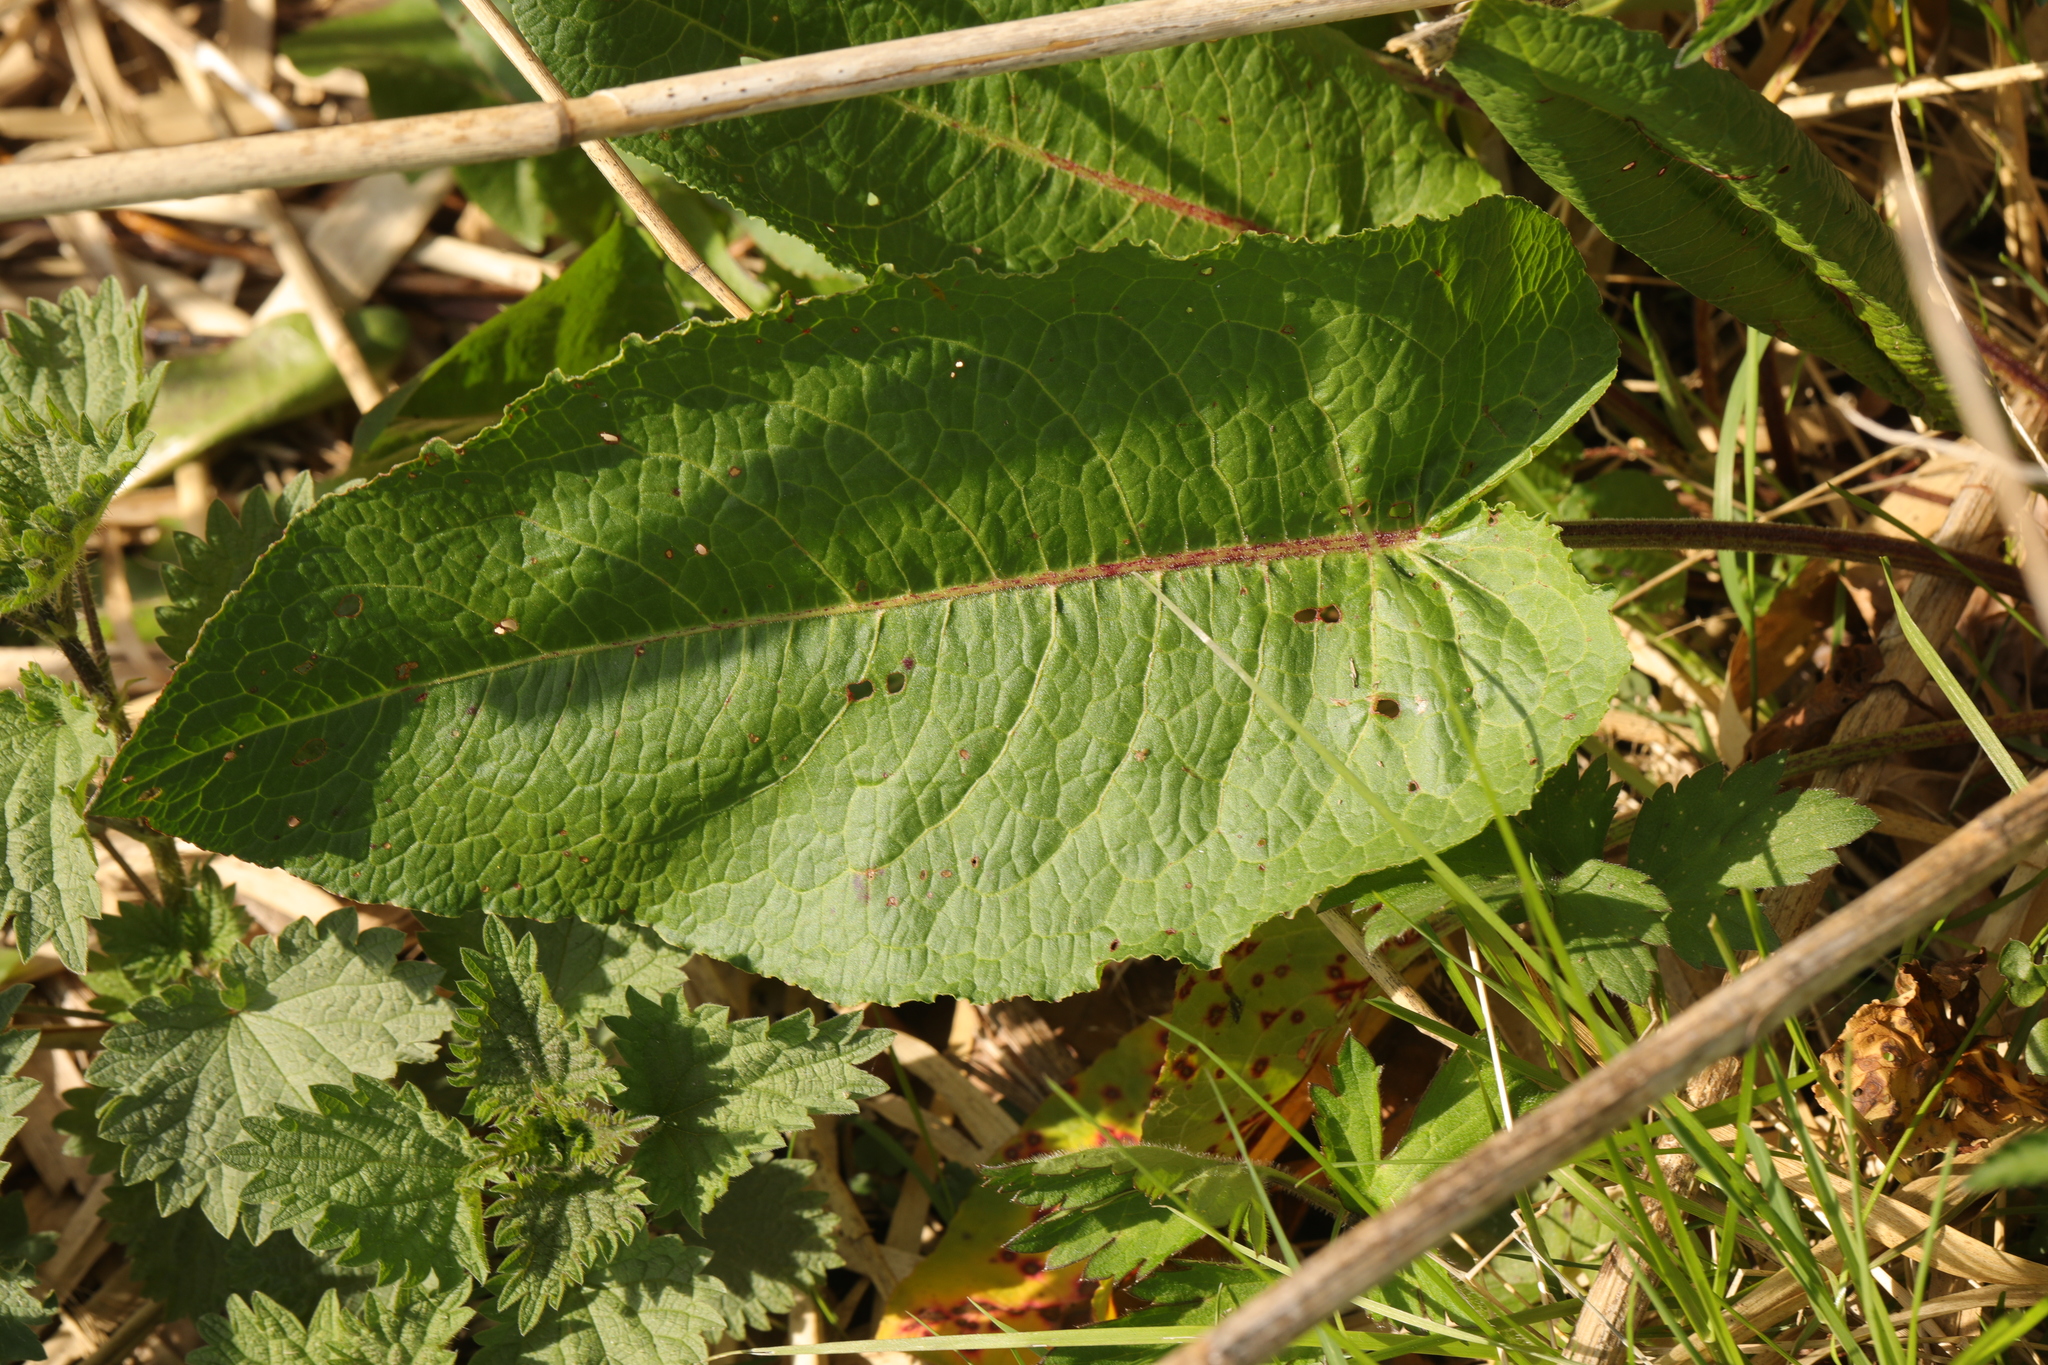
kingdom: Plantae
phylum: Tracheophyta
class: Magnoliopsida
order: Caryophyllales
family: Polygonaceae
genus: Rumex
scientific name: Rumex obtusifolius
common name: Bitter dock
